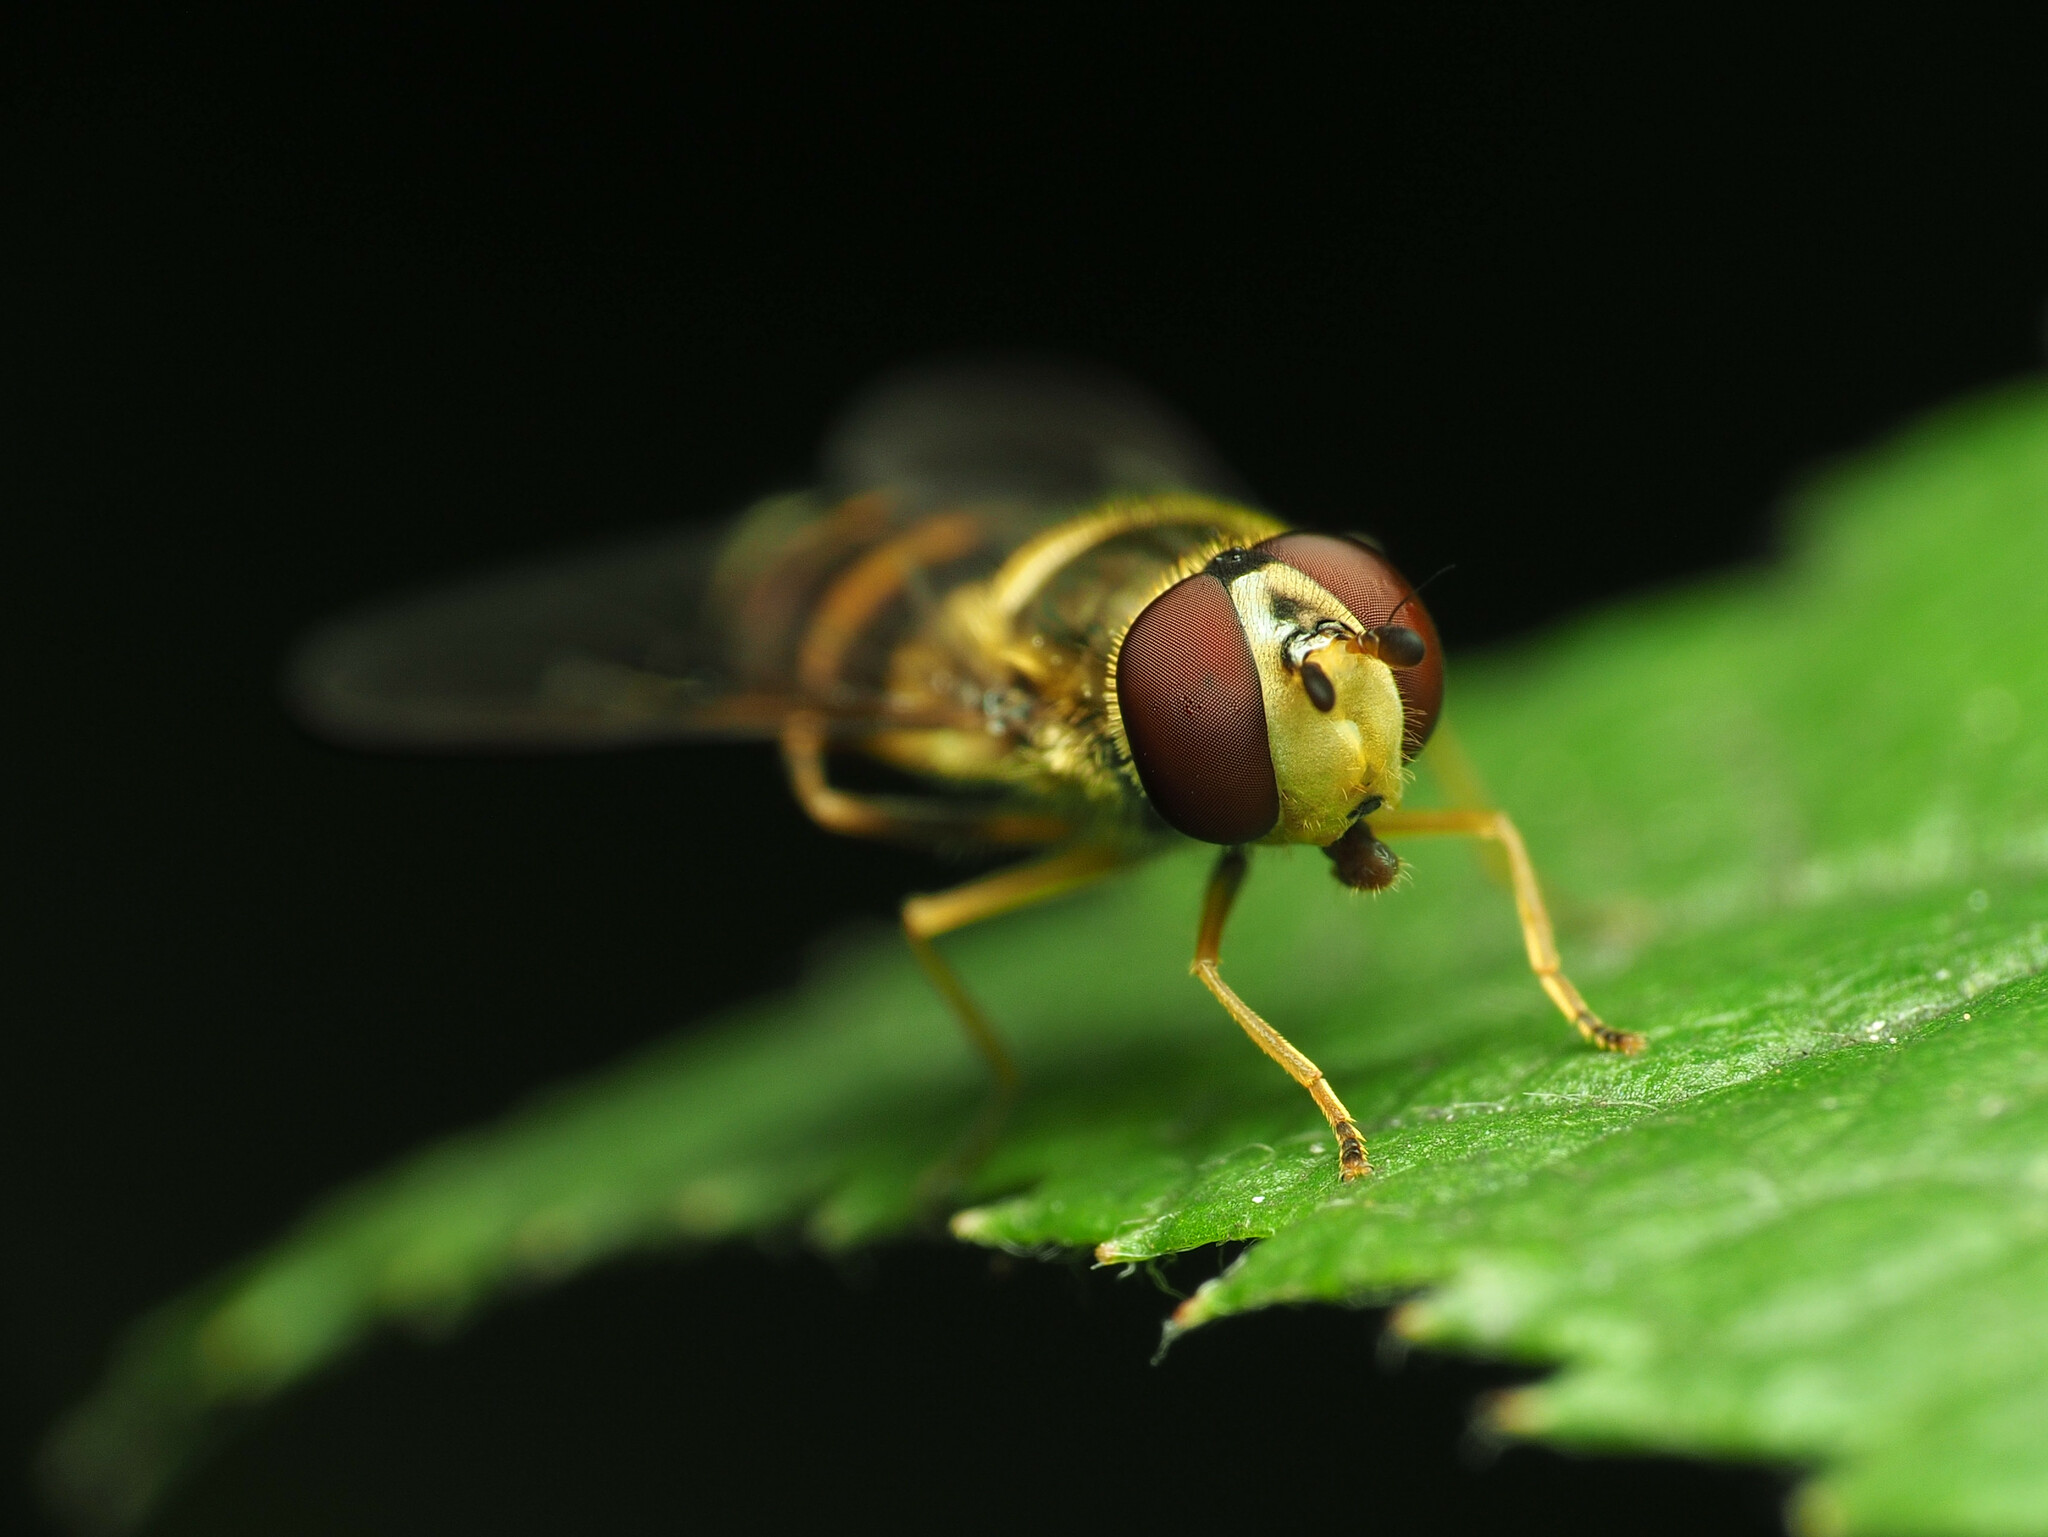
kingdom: Animalia
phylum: Arthropoda
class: Insecta
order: Diptera
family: Syrphidae
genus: Syrphus
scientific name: Syrphus rectus
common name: Yellow-legged flower fly
